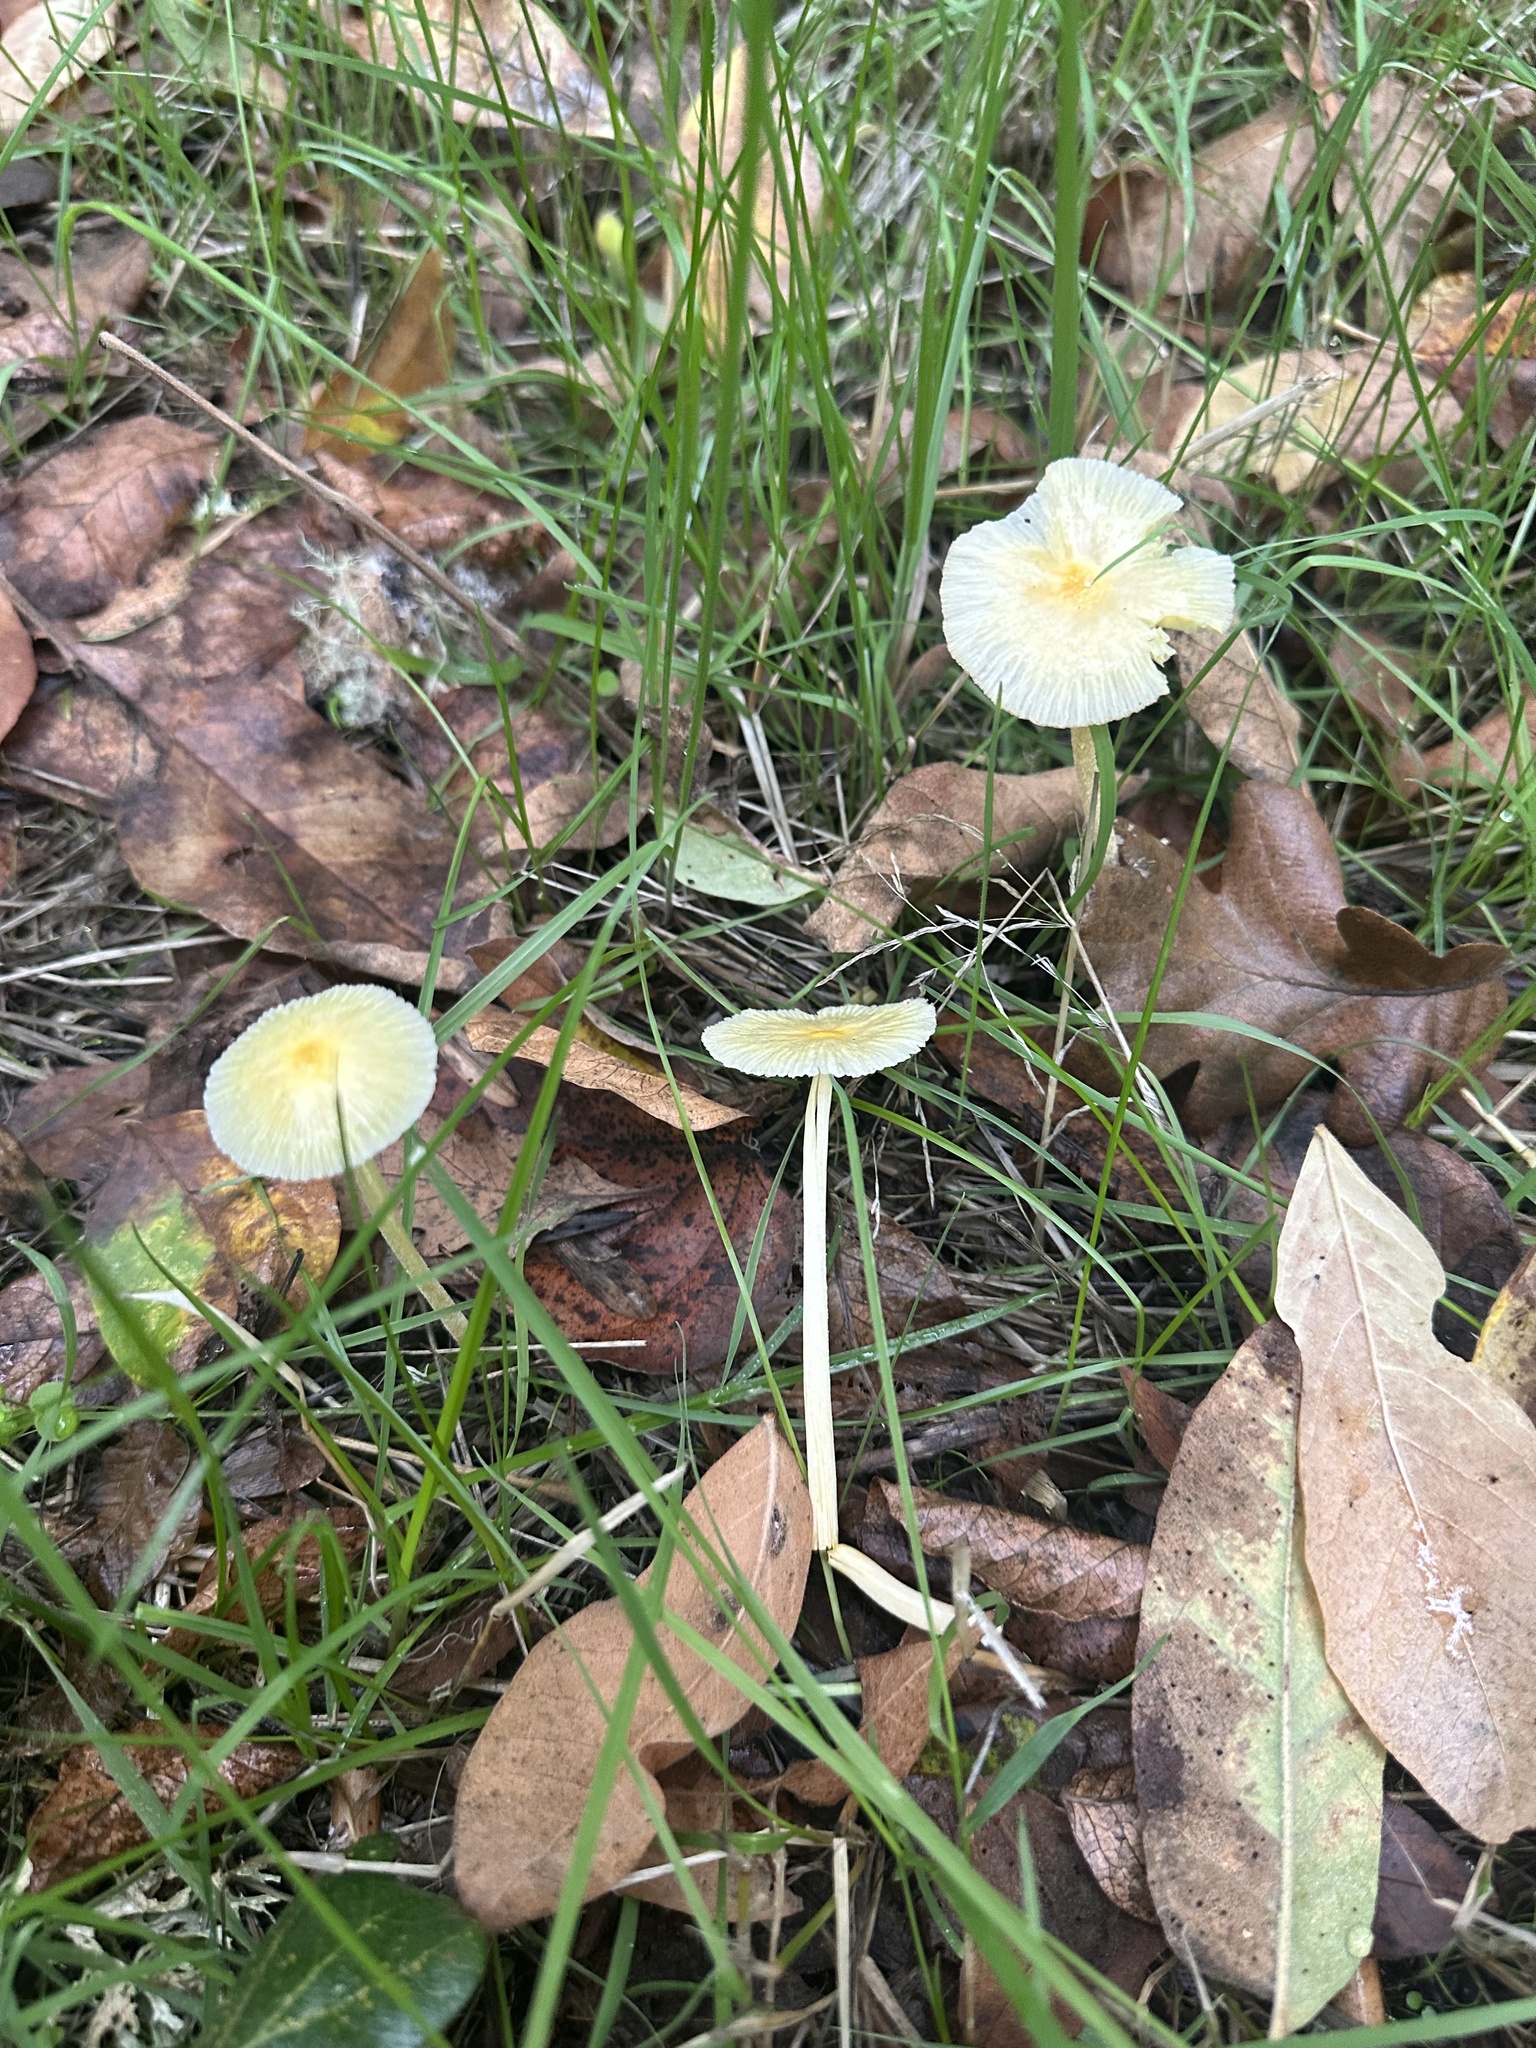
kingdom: Fungi
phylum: Basidiomycota
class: Agaricomycetes
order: Agaricales
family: Bolbitiaceae
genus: Bolbitius
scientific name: Bolbitius titubans
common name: Yellow fieldcap
